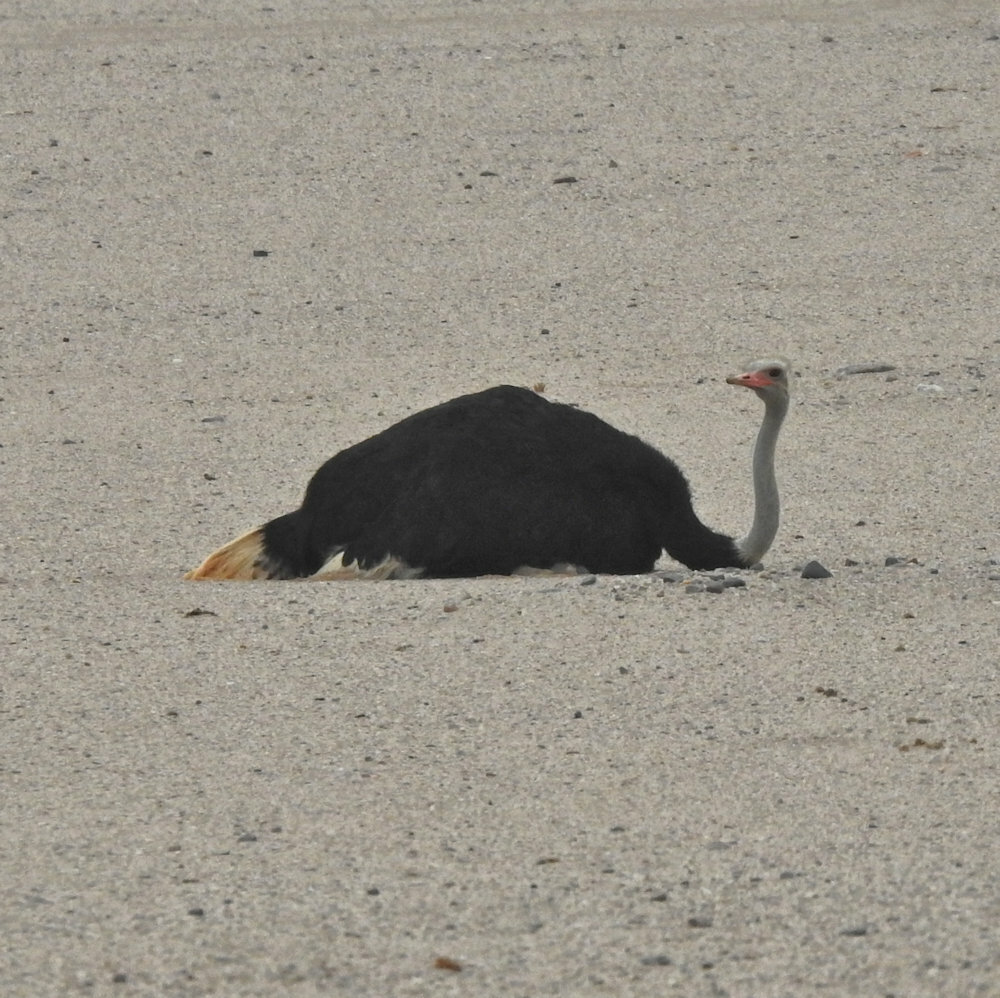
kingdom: Animalia
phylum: Chordata
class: Aves
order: Struthioniformes
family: Struthionidae
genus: Struthio
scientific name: Struthio camelus
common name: Common ostrich
